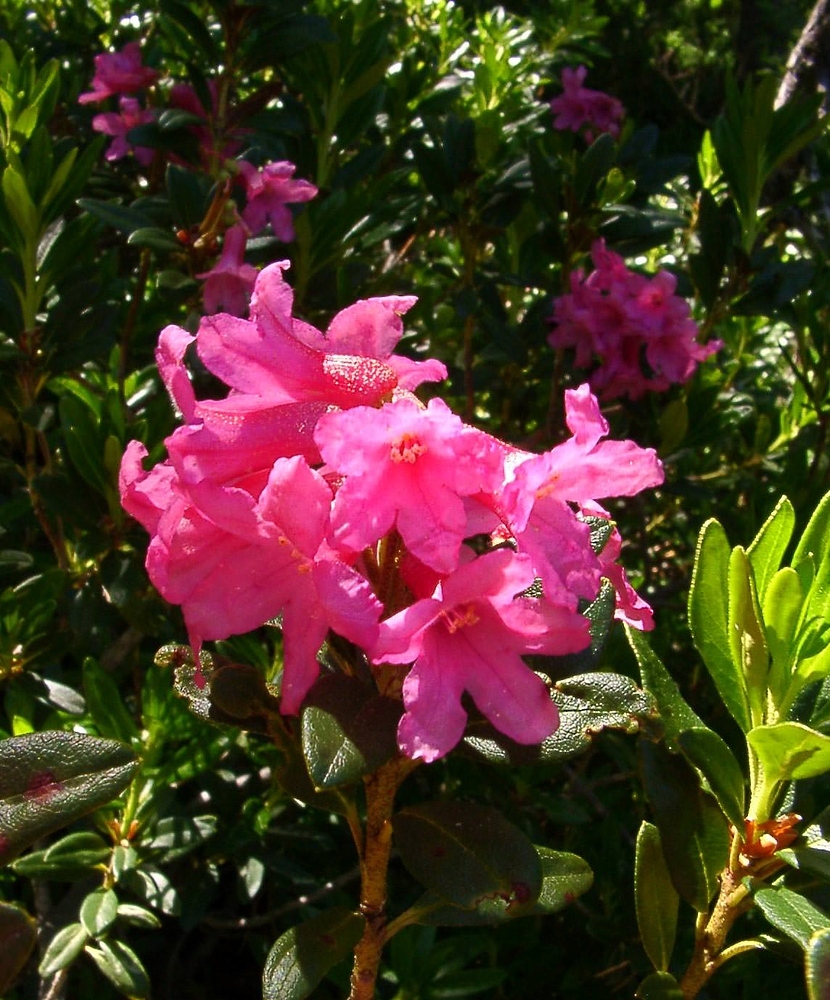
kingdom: Plantae
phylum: Tracheophyta
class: Magnoliopsida
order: Ericales
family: Ericaceae
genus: Rhododendron
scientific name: Rhododendron ferrugineum
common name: Alpenrose
